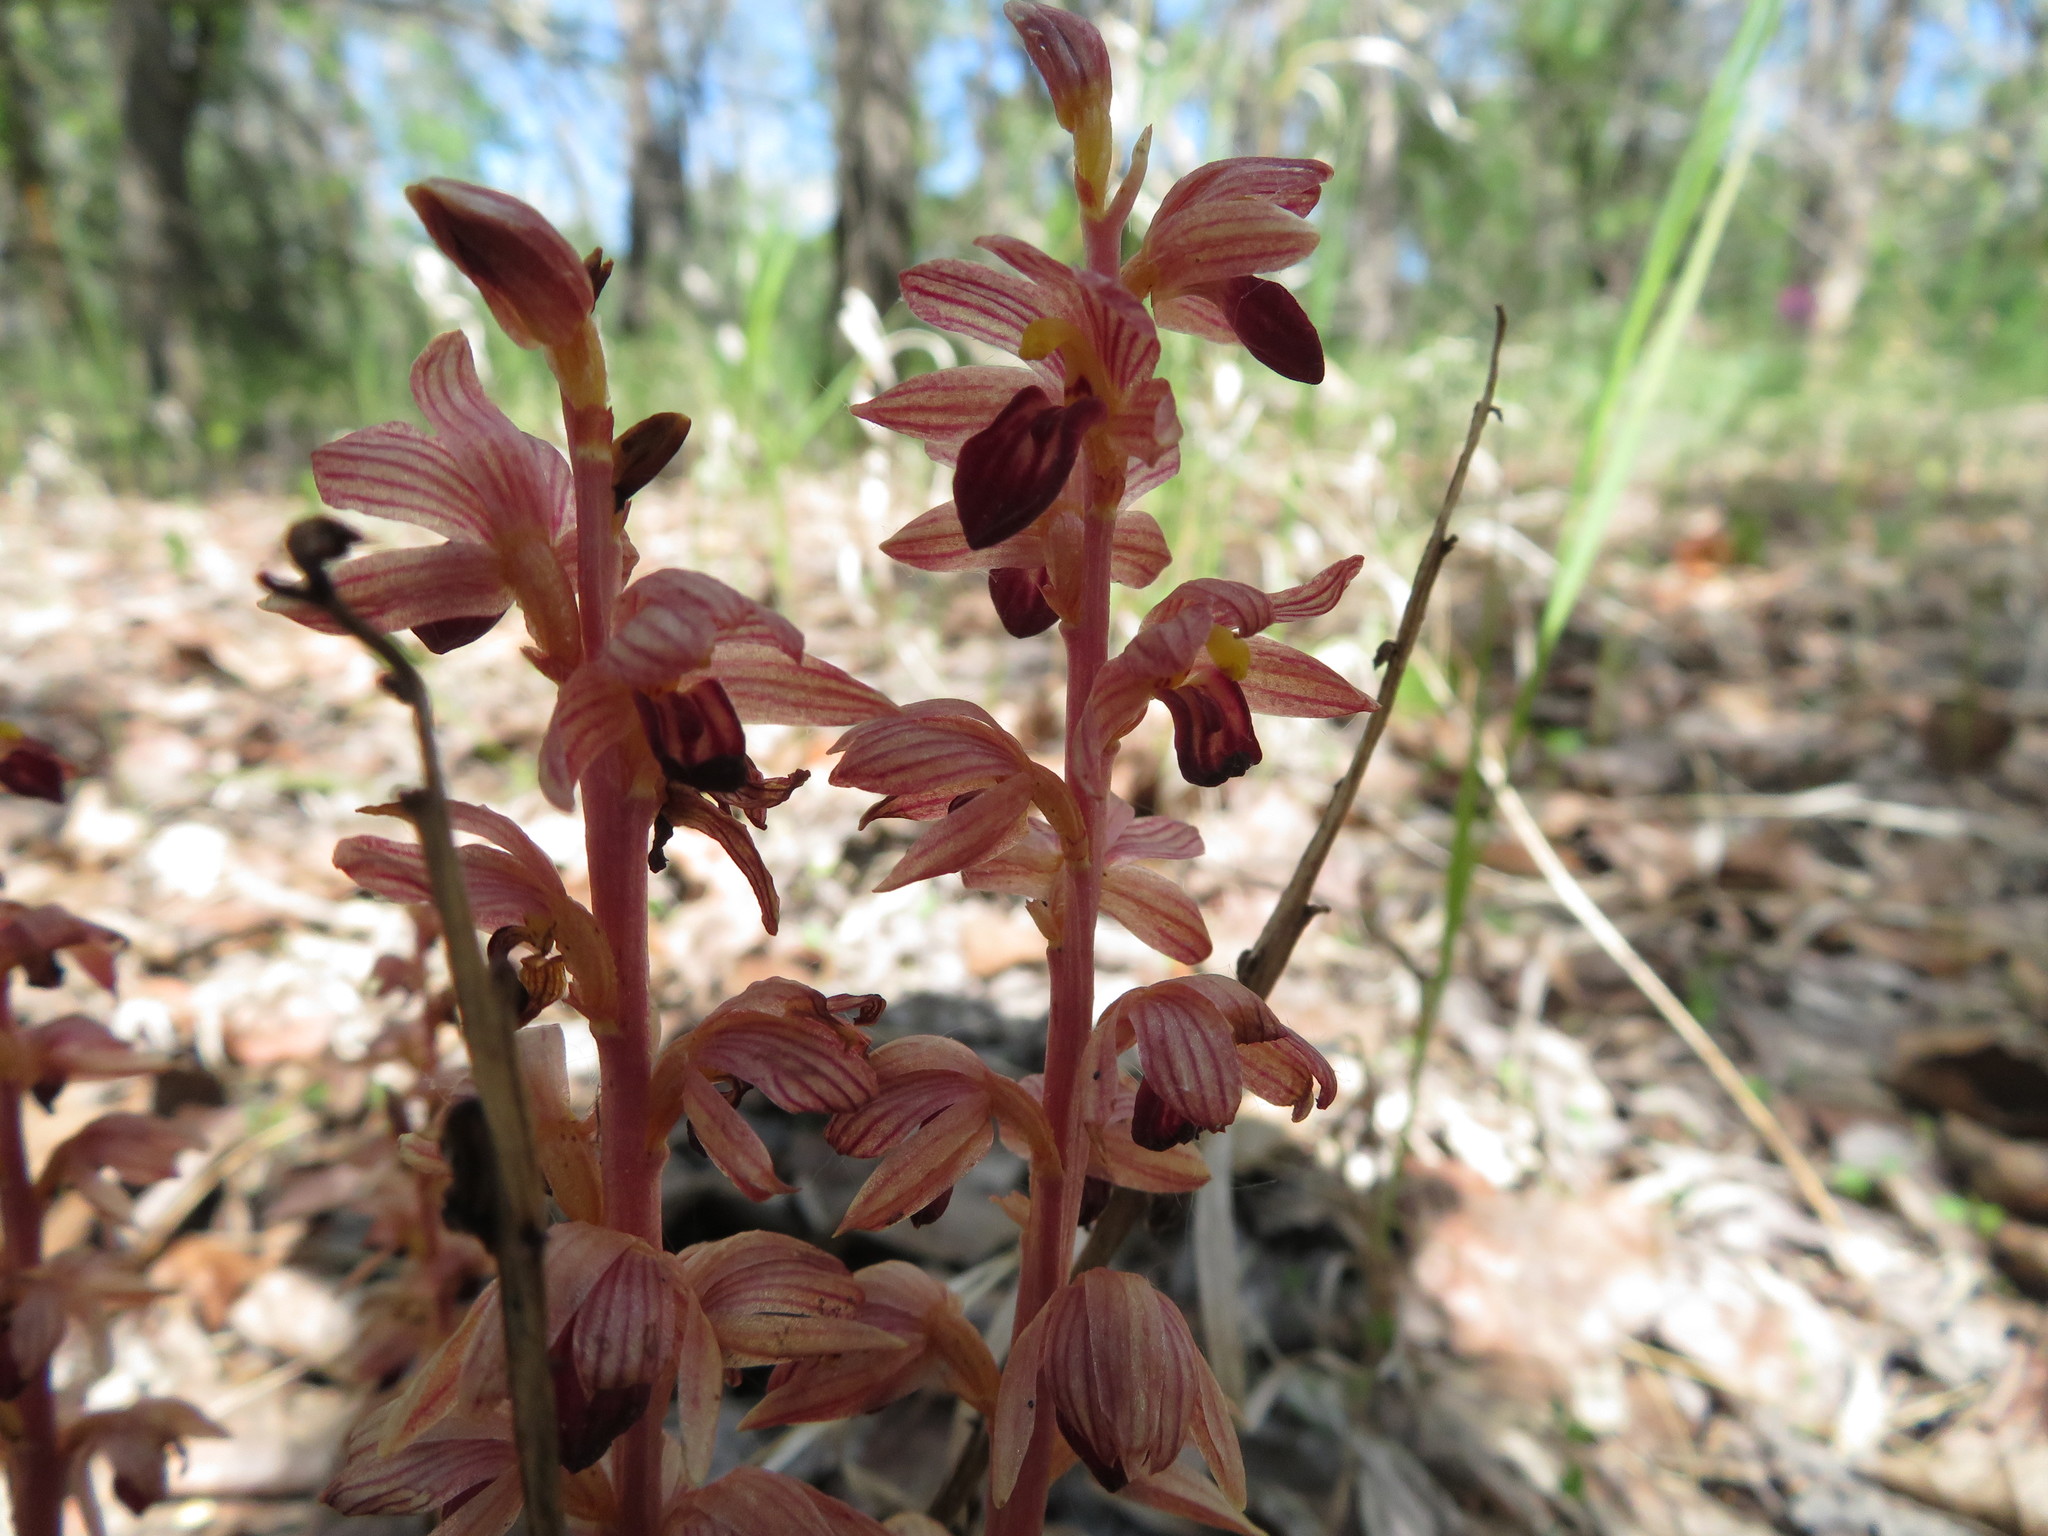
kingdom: Plantae
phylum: Tracheophyta
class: Liliopsida
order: Asparagales
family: Orchidaceae
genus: Corallorhiza
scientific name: Corallorhiza striata
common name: Hooded coralroot
